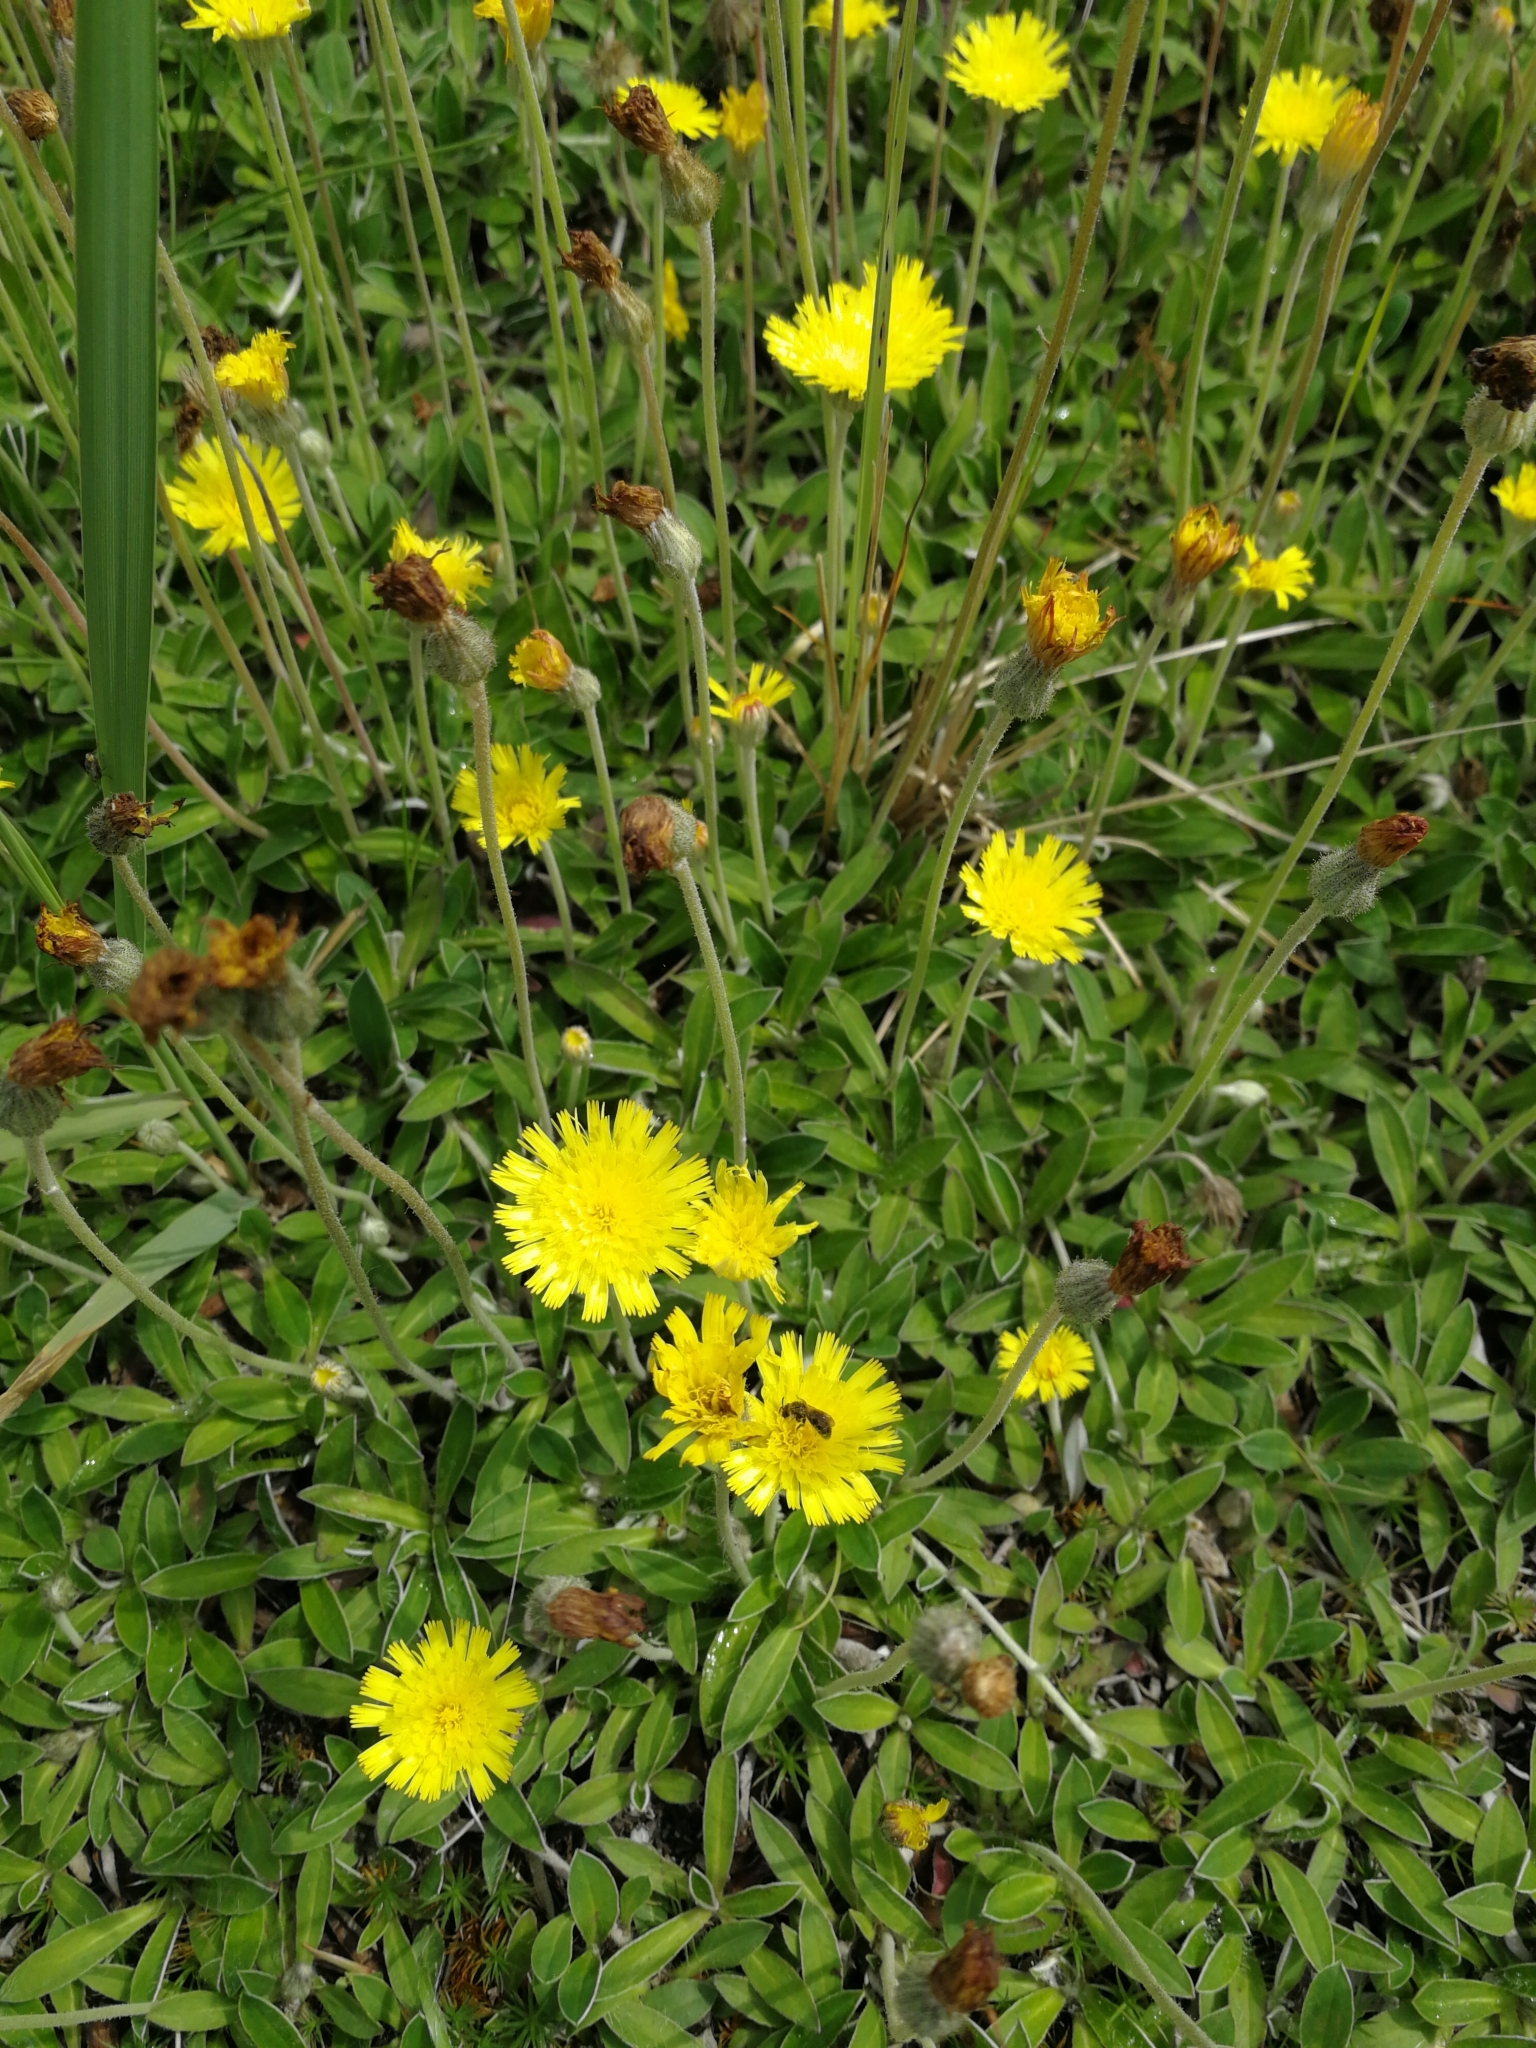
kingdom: Plantae
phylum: Tracheophyta
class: Magnoliopsida
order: Asterales
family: Asteraceae
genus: Pilosella
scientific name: Pilosella officinarum
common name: Mouse-ear hawkweed
